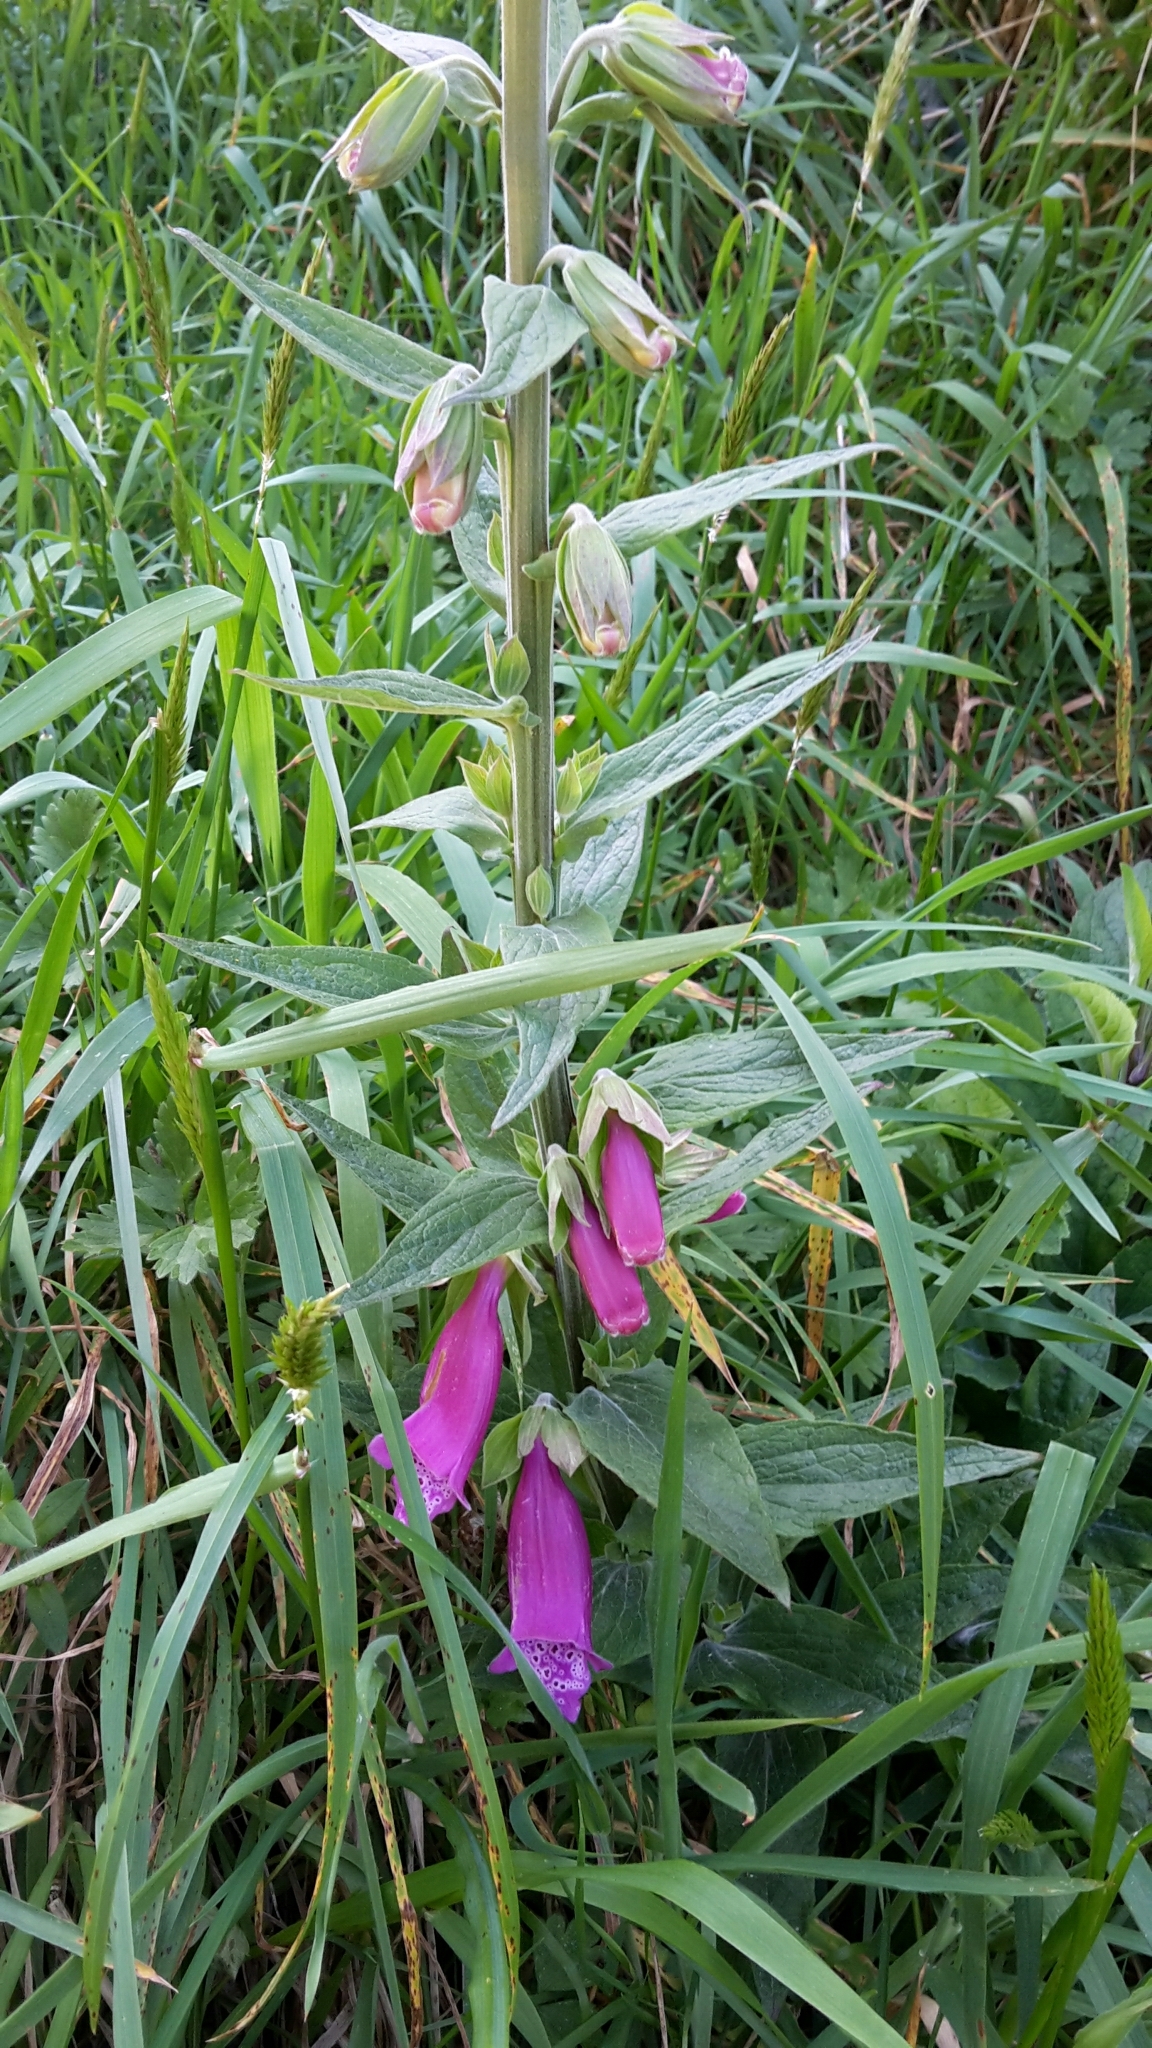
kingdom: Plantae
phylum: Tracheophyta
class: Magnoliopsida
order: Lamiales
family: Plantaginaceae
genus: Digitalis
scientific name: Digitalis purpurea
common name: Foxglove
